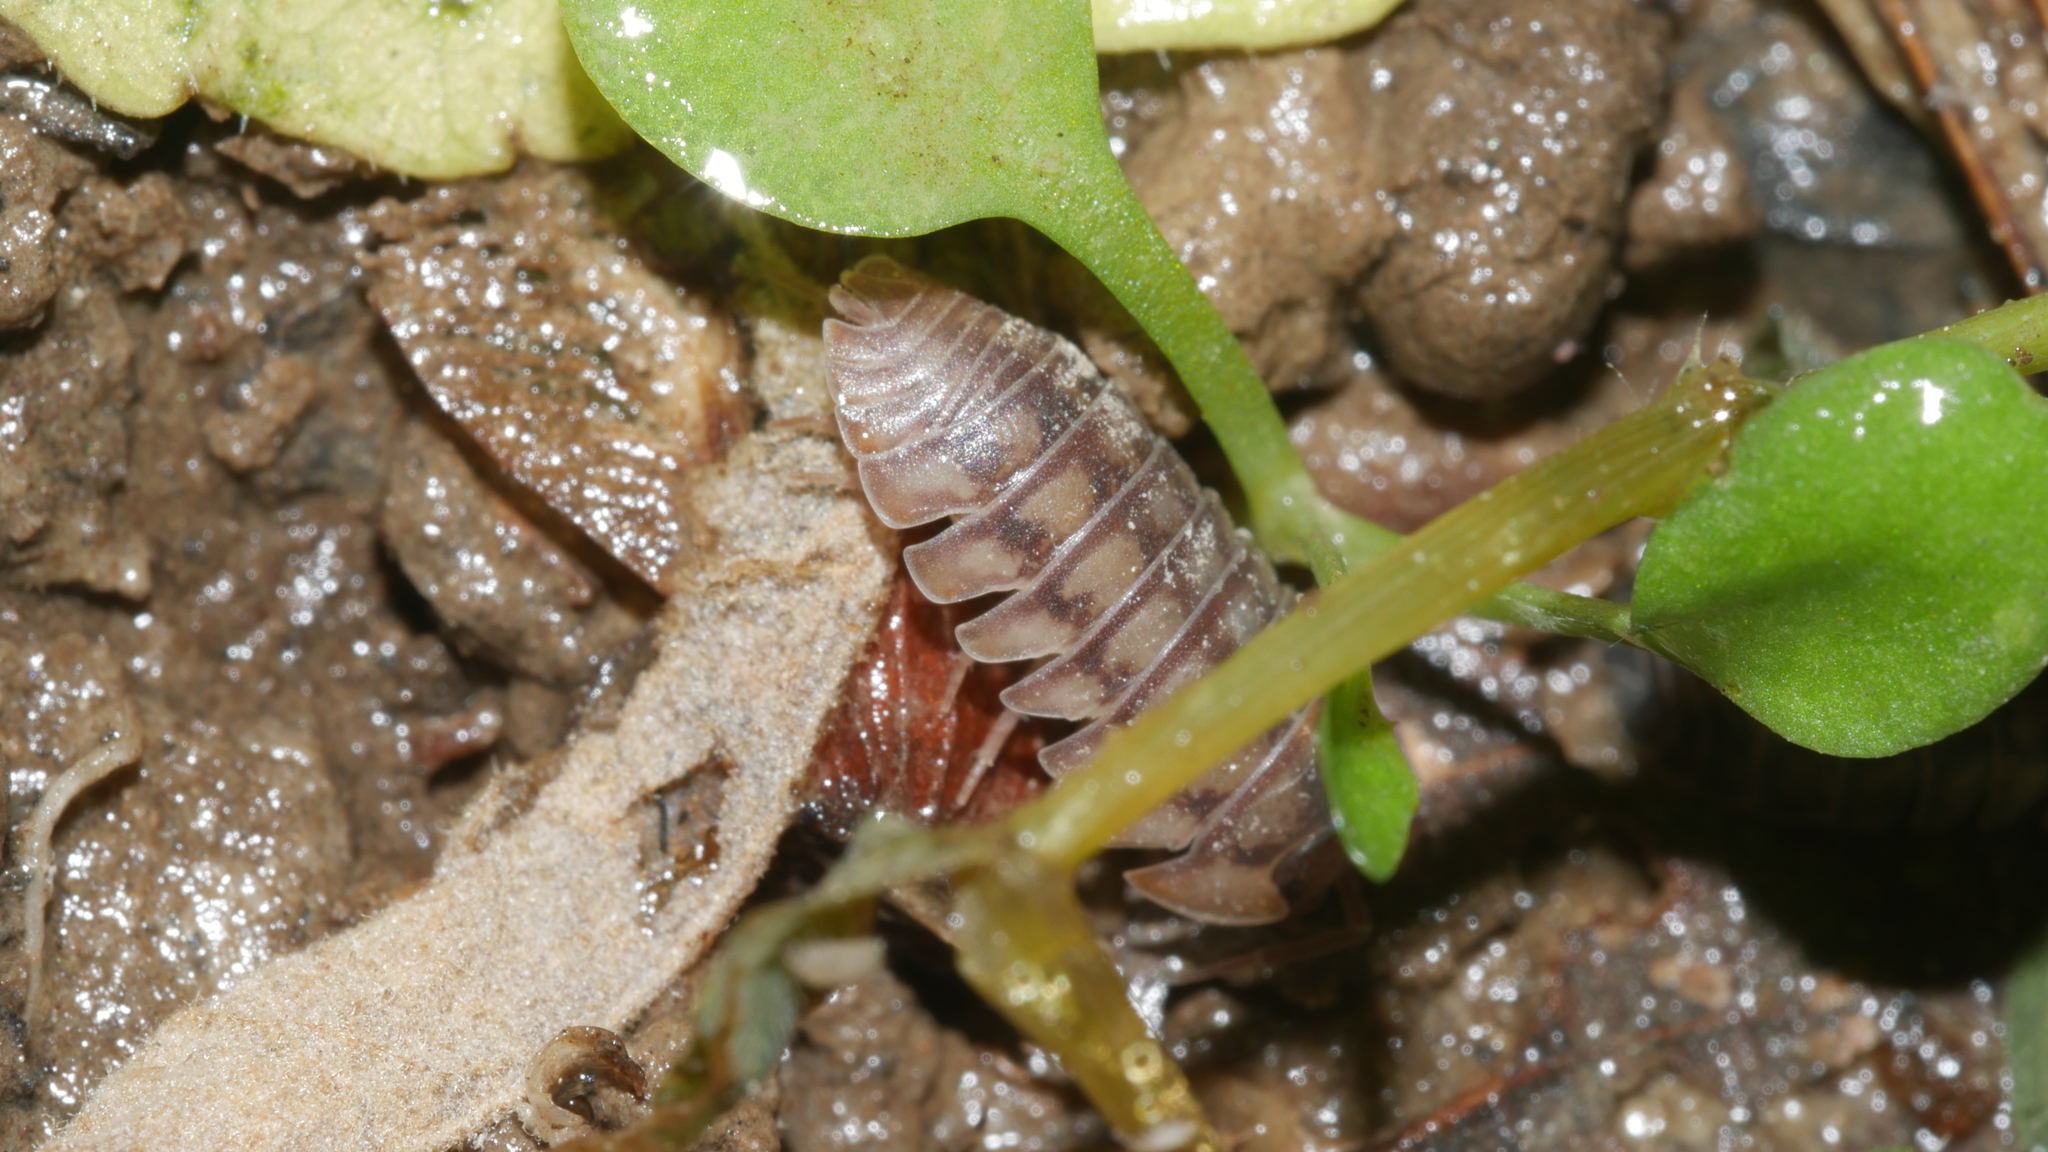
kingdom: Animalia
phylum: Arthropoda
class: Malacostraca
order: Isopoda
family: Armadillidiidae
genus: Armadillidium
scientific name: Armadillidium nasatum
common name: Isopod
